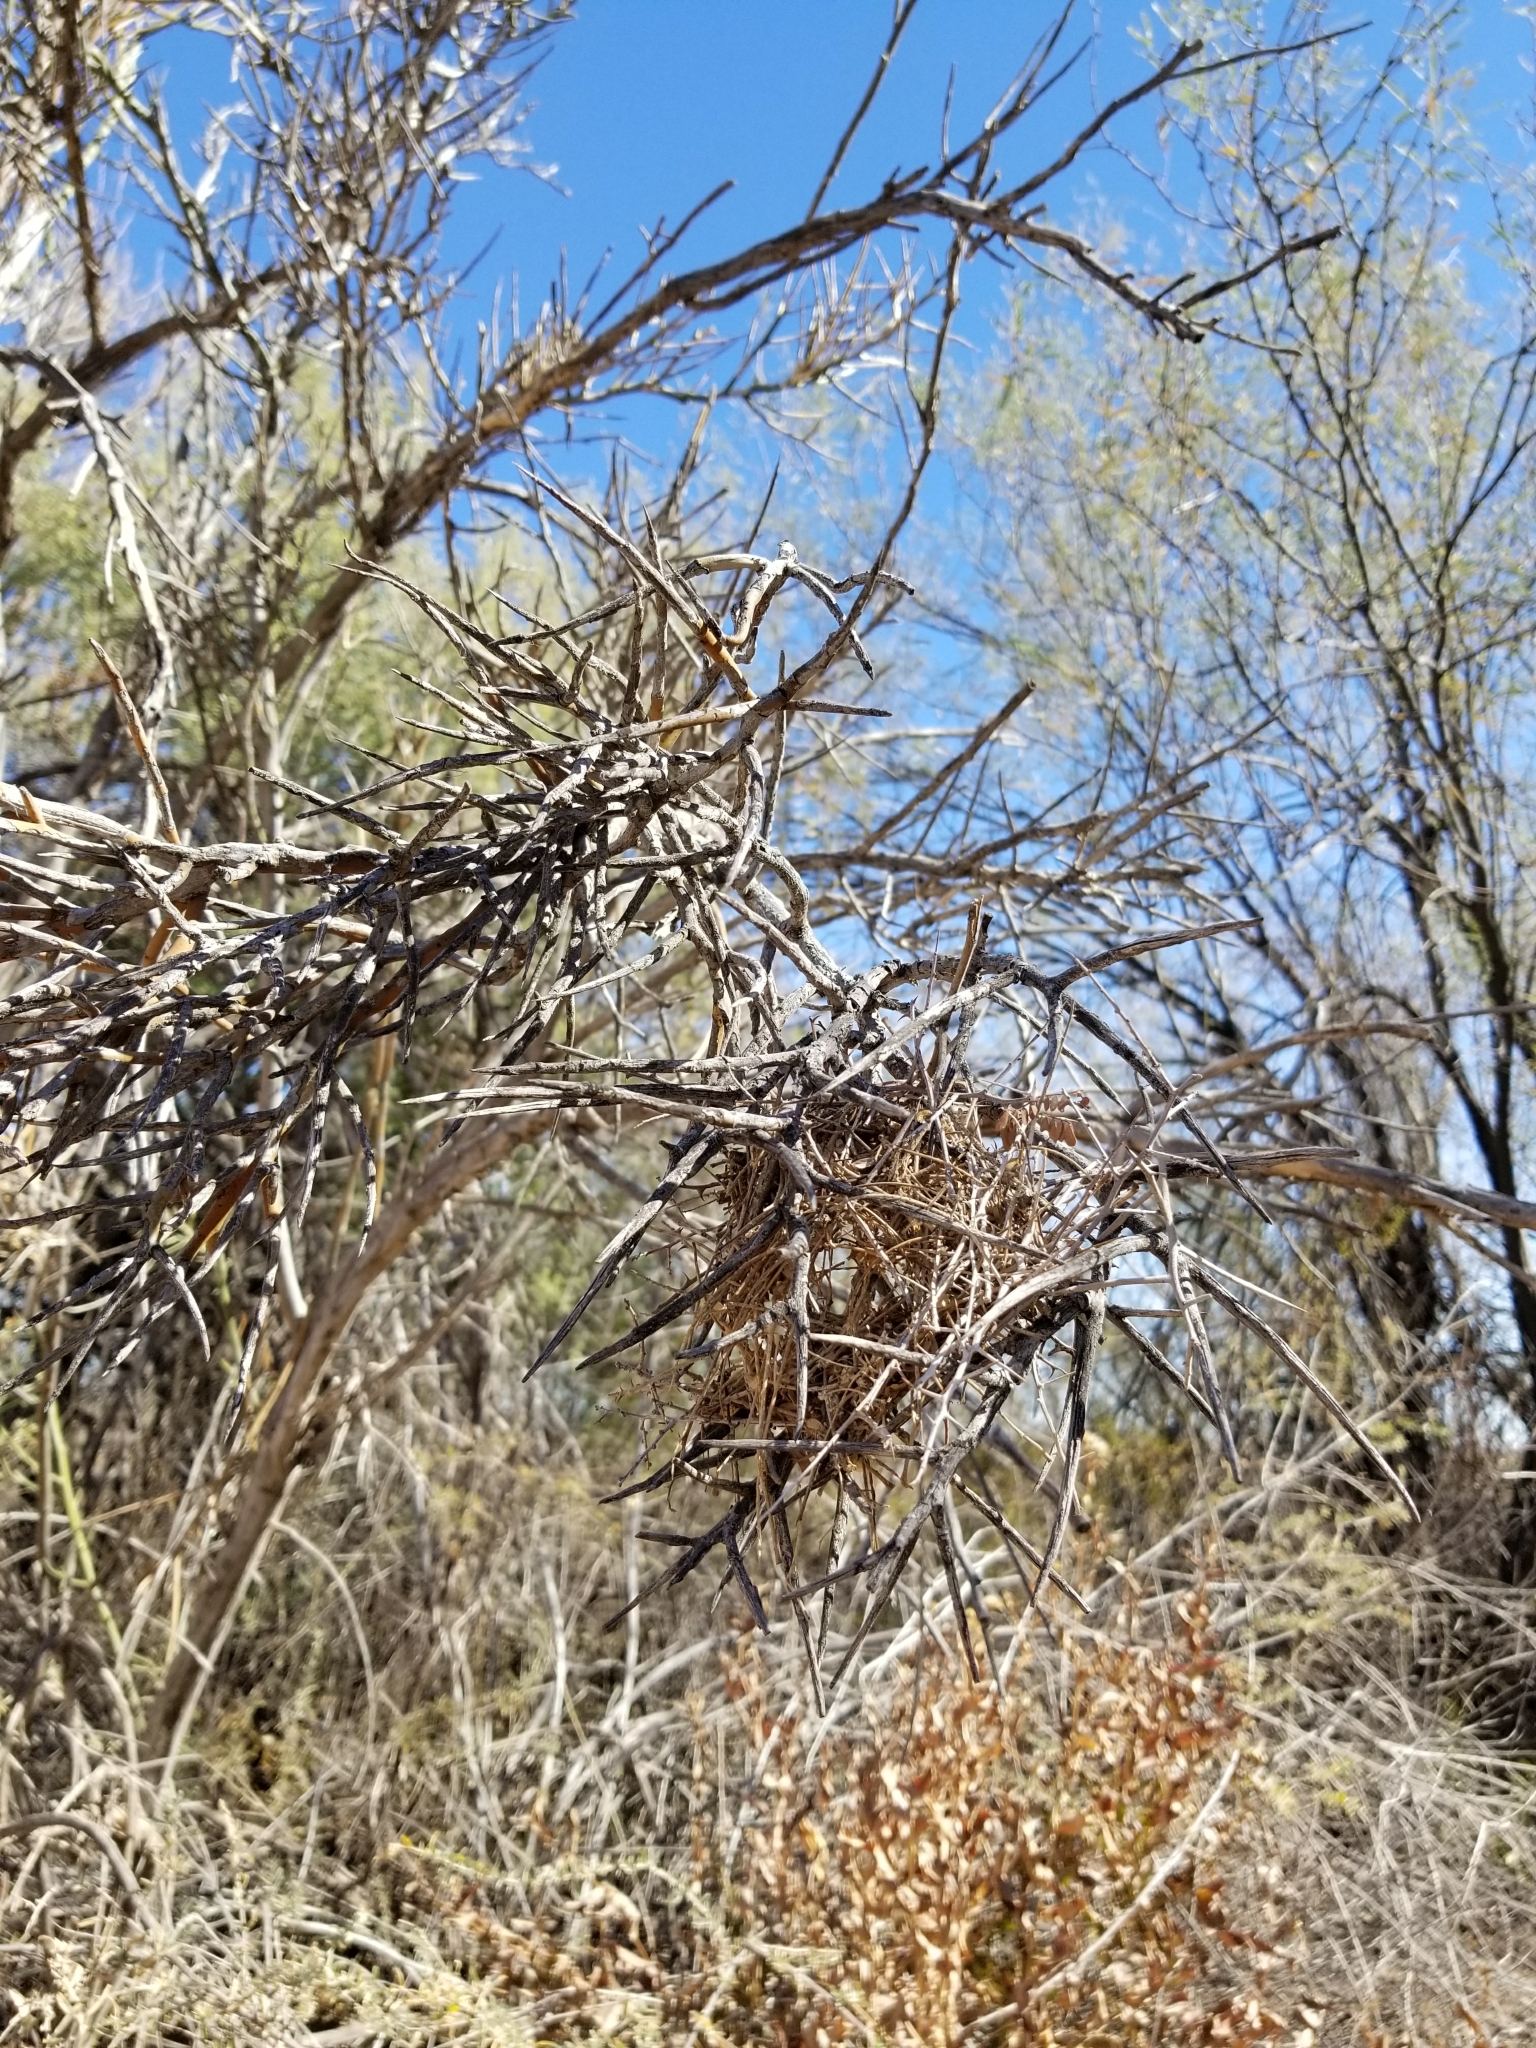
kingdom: Plantae
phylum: Tracheophyta
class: Magnoliopsida
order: Sapindales
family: Simaroubaceae
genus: Holacantha
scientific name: Holacantha emoryi
